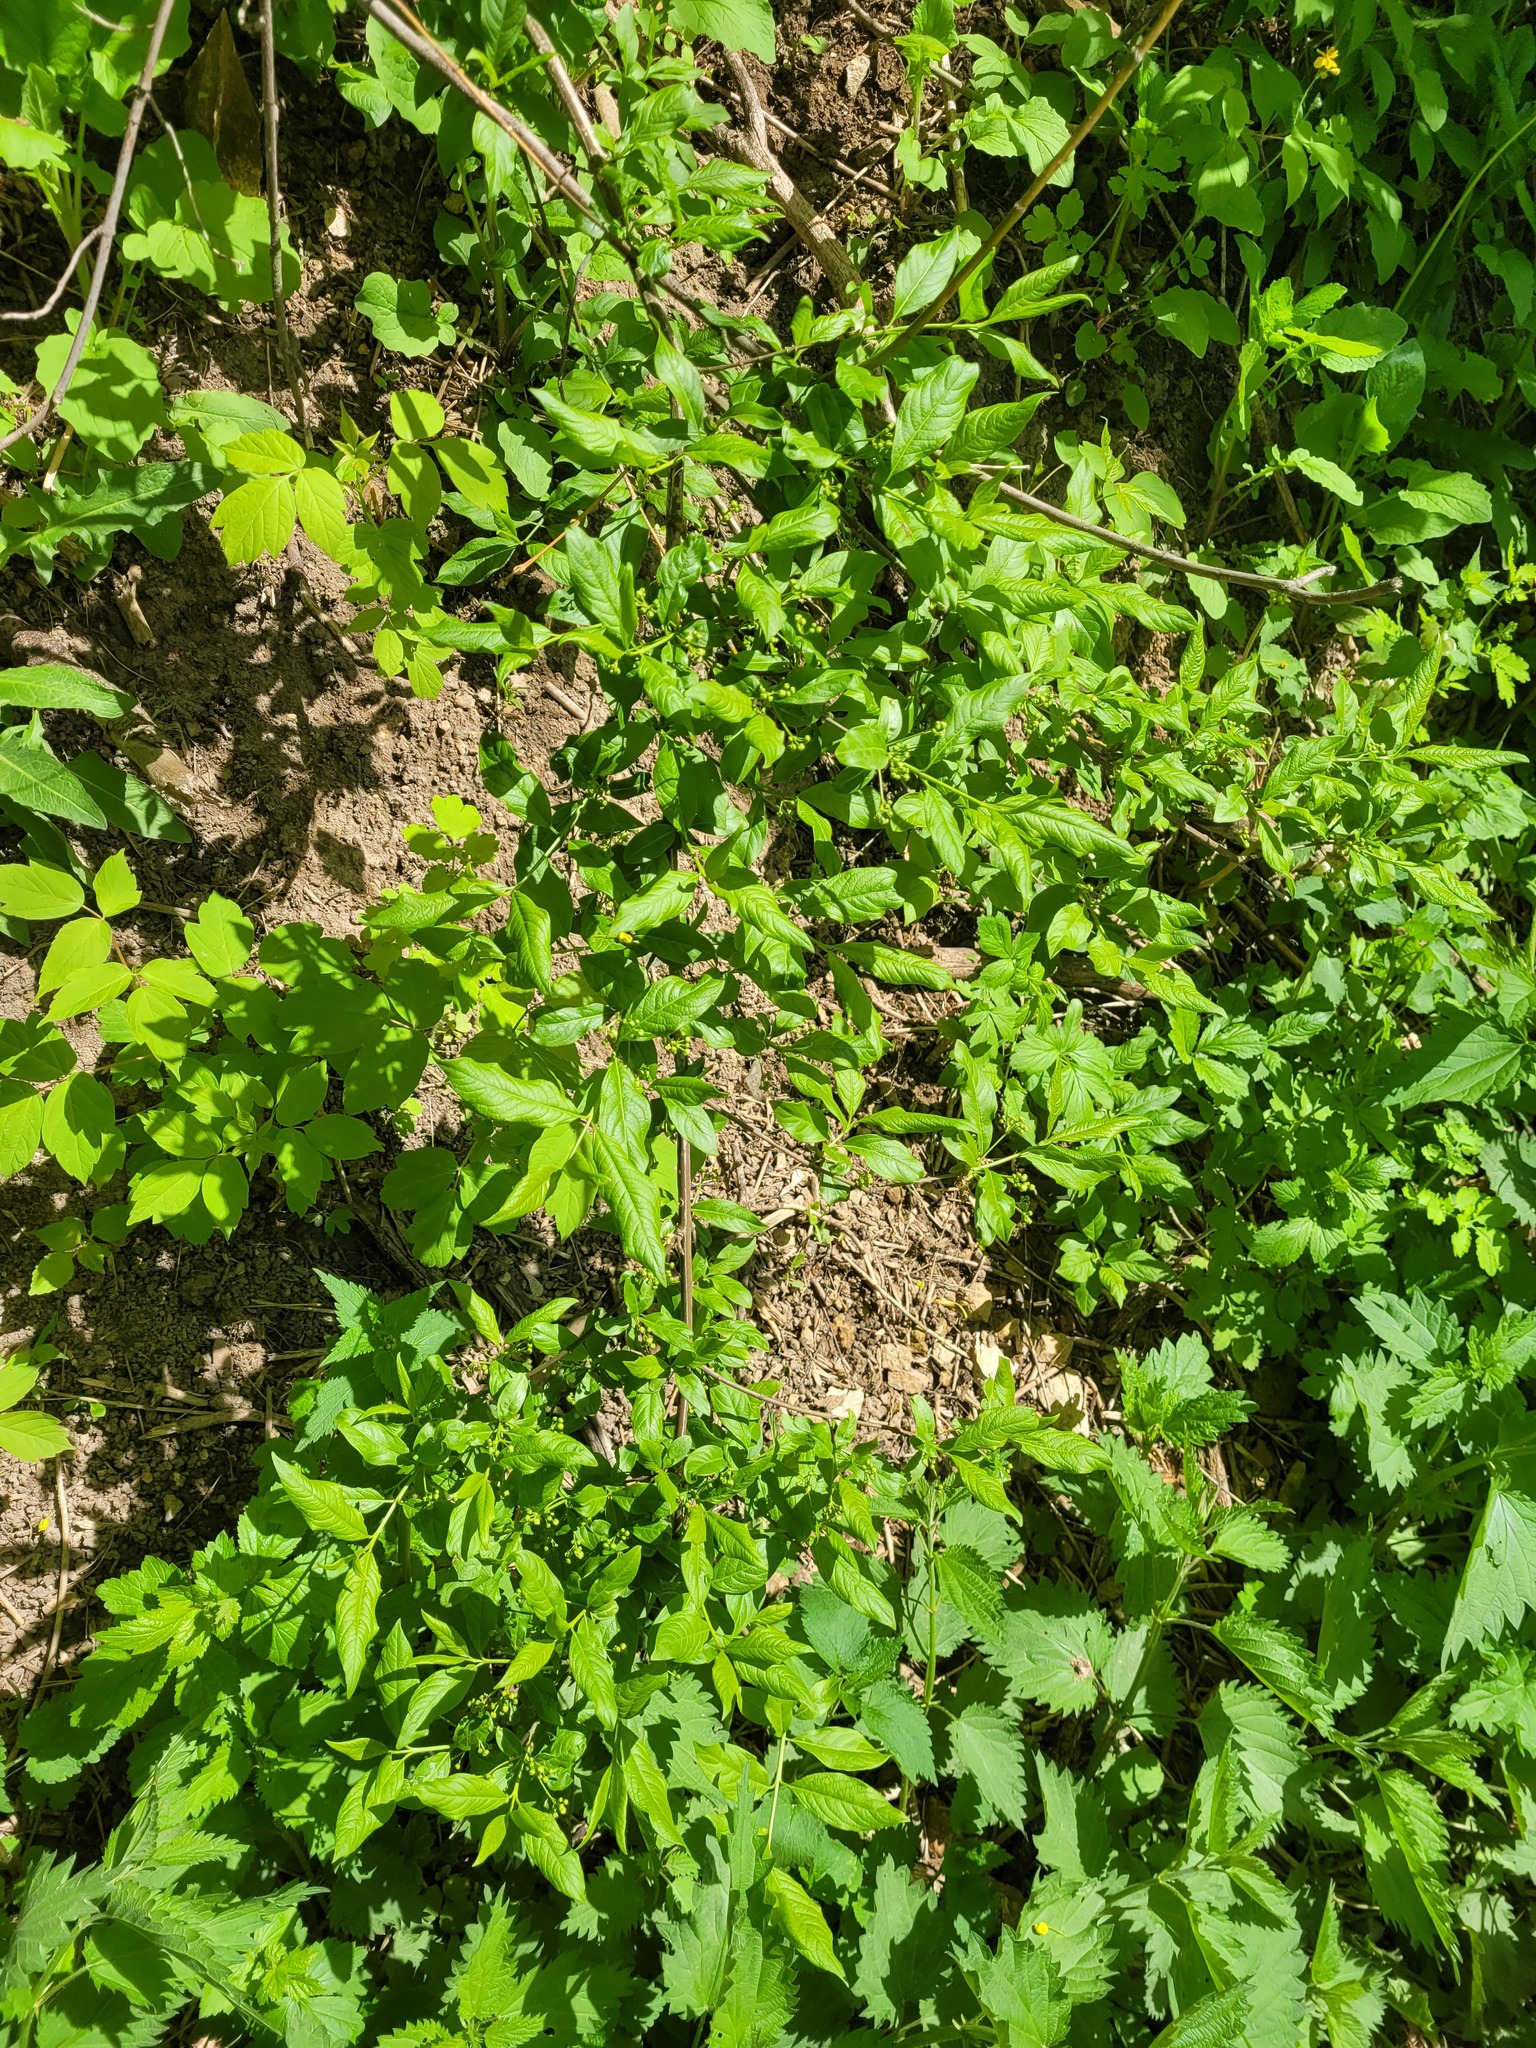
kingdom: Plantae
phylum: Tracheophyta
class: Magnoliopsida
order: Celastrales
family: Celastraceae
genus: Euonymus
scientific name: Euonymus europaeus
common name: Spindle
